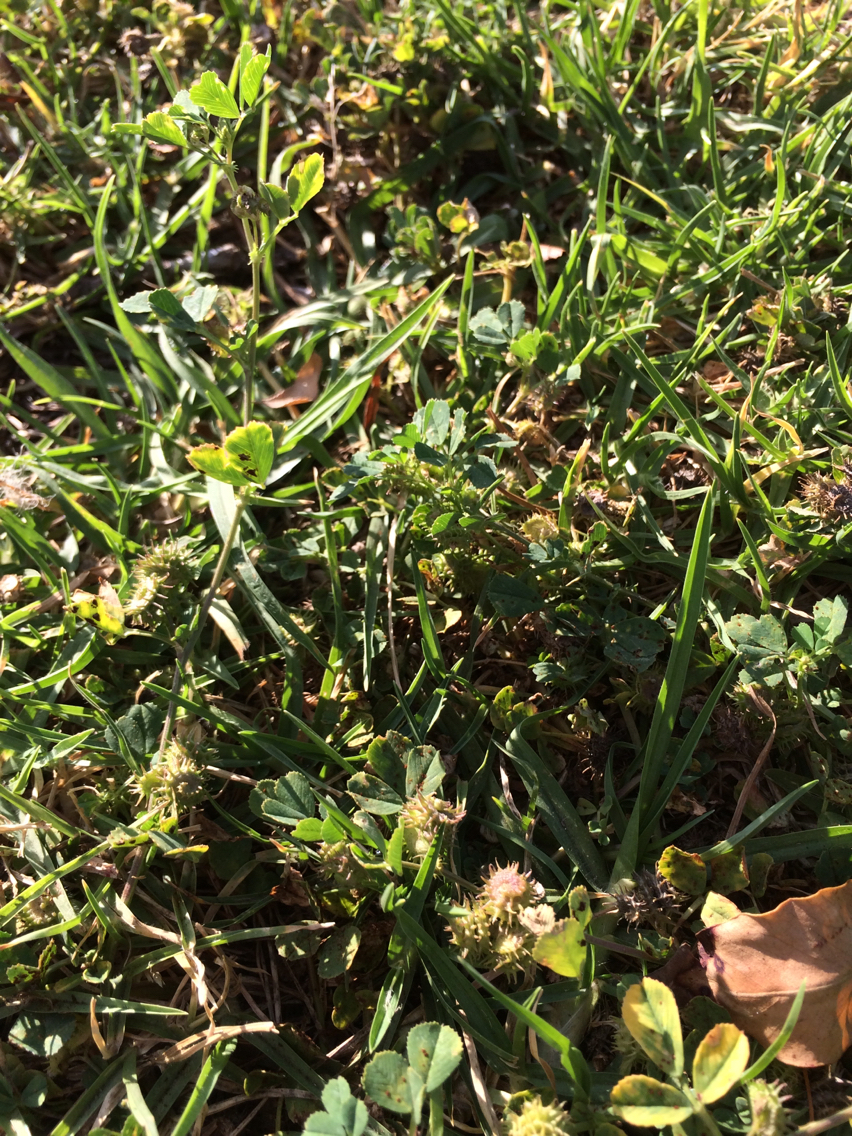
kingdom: Plantae
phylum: Tracheophyta
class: Magnoliopsida
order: Fabales
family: Fabaceae
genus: Medicago
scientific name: Medicago polymorpha
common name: Burclover
